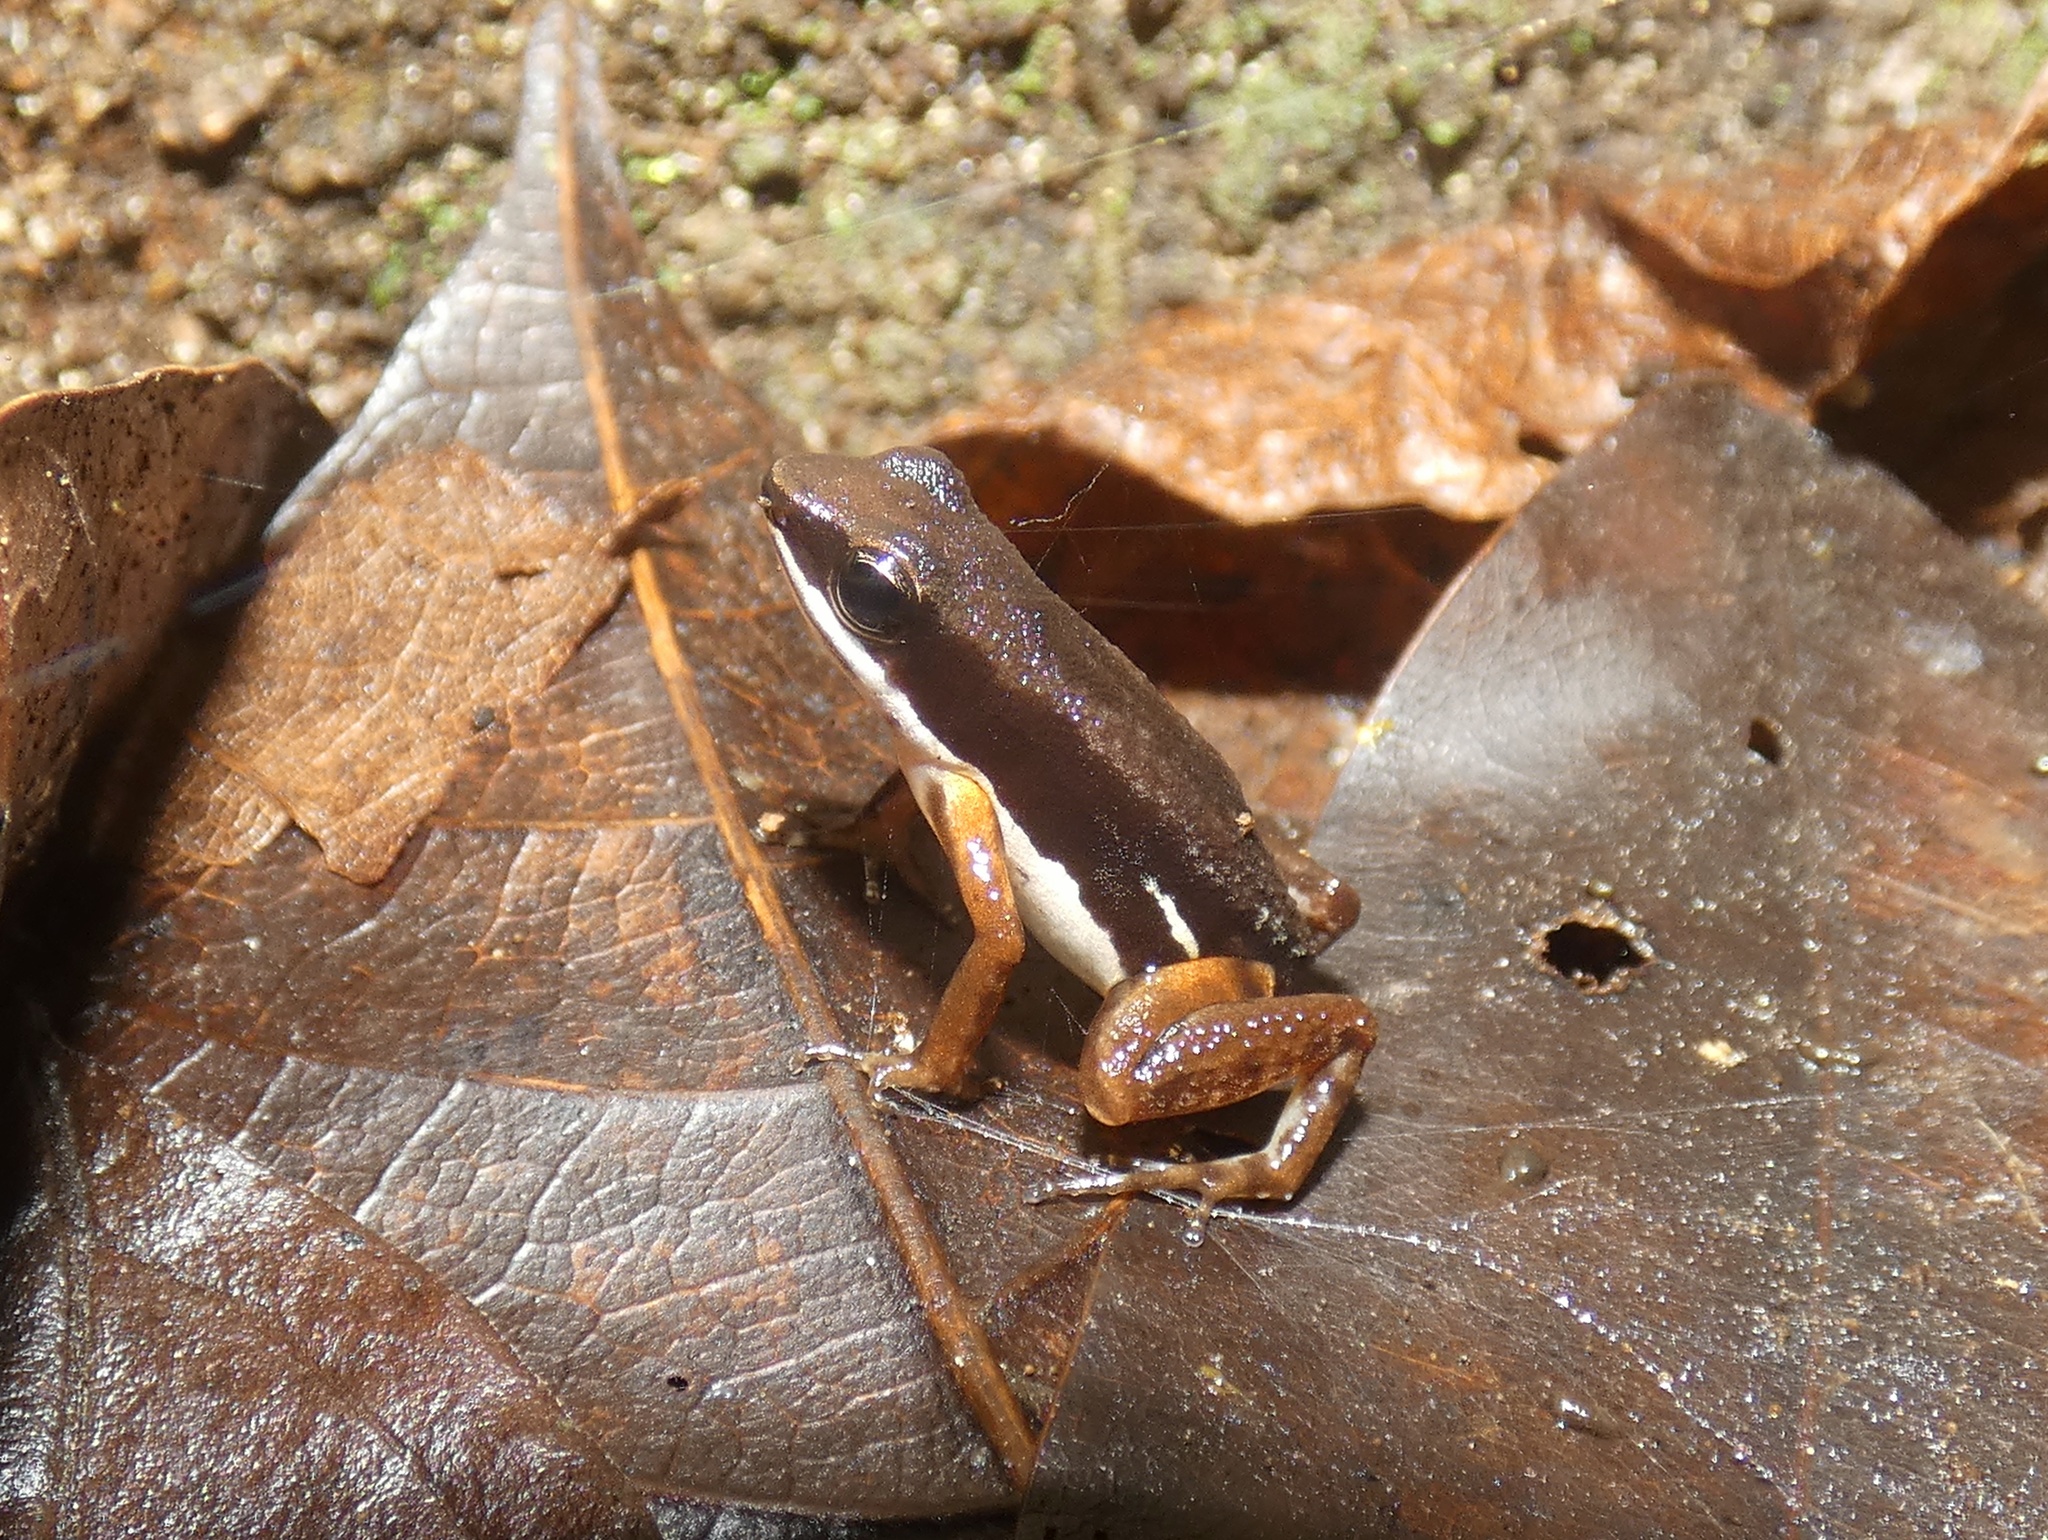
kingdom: Animalia
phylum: Chordata
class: Amphibia
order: Anura
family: Dendrobatidae
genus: Colostethus
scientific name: Colostethus pratti
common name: Pratt's rocket frog
